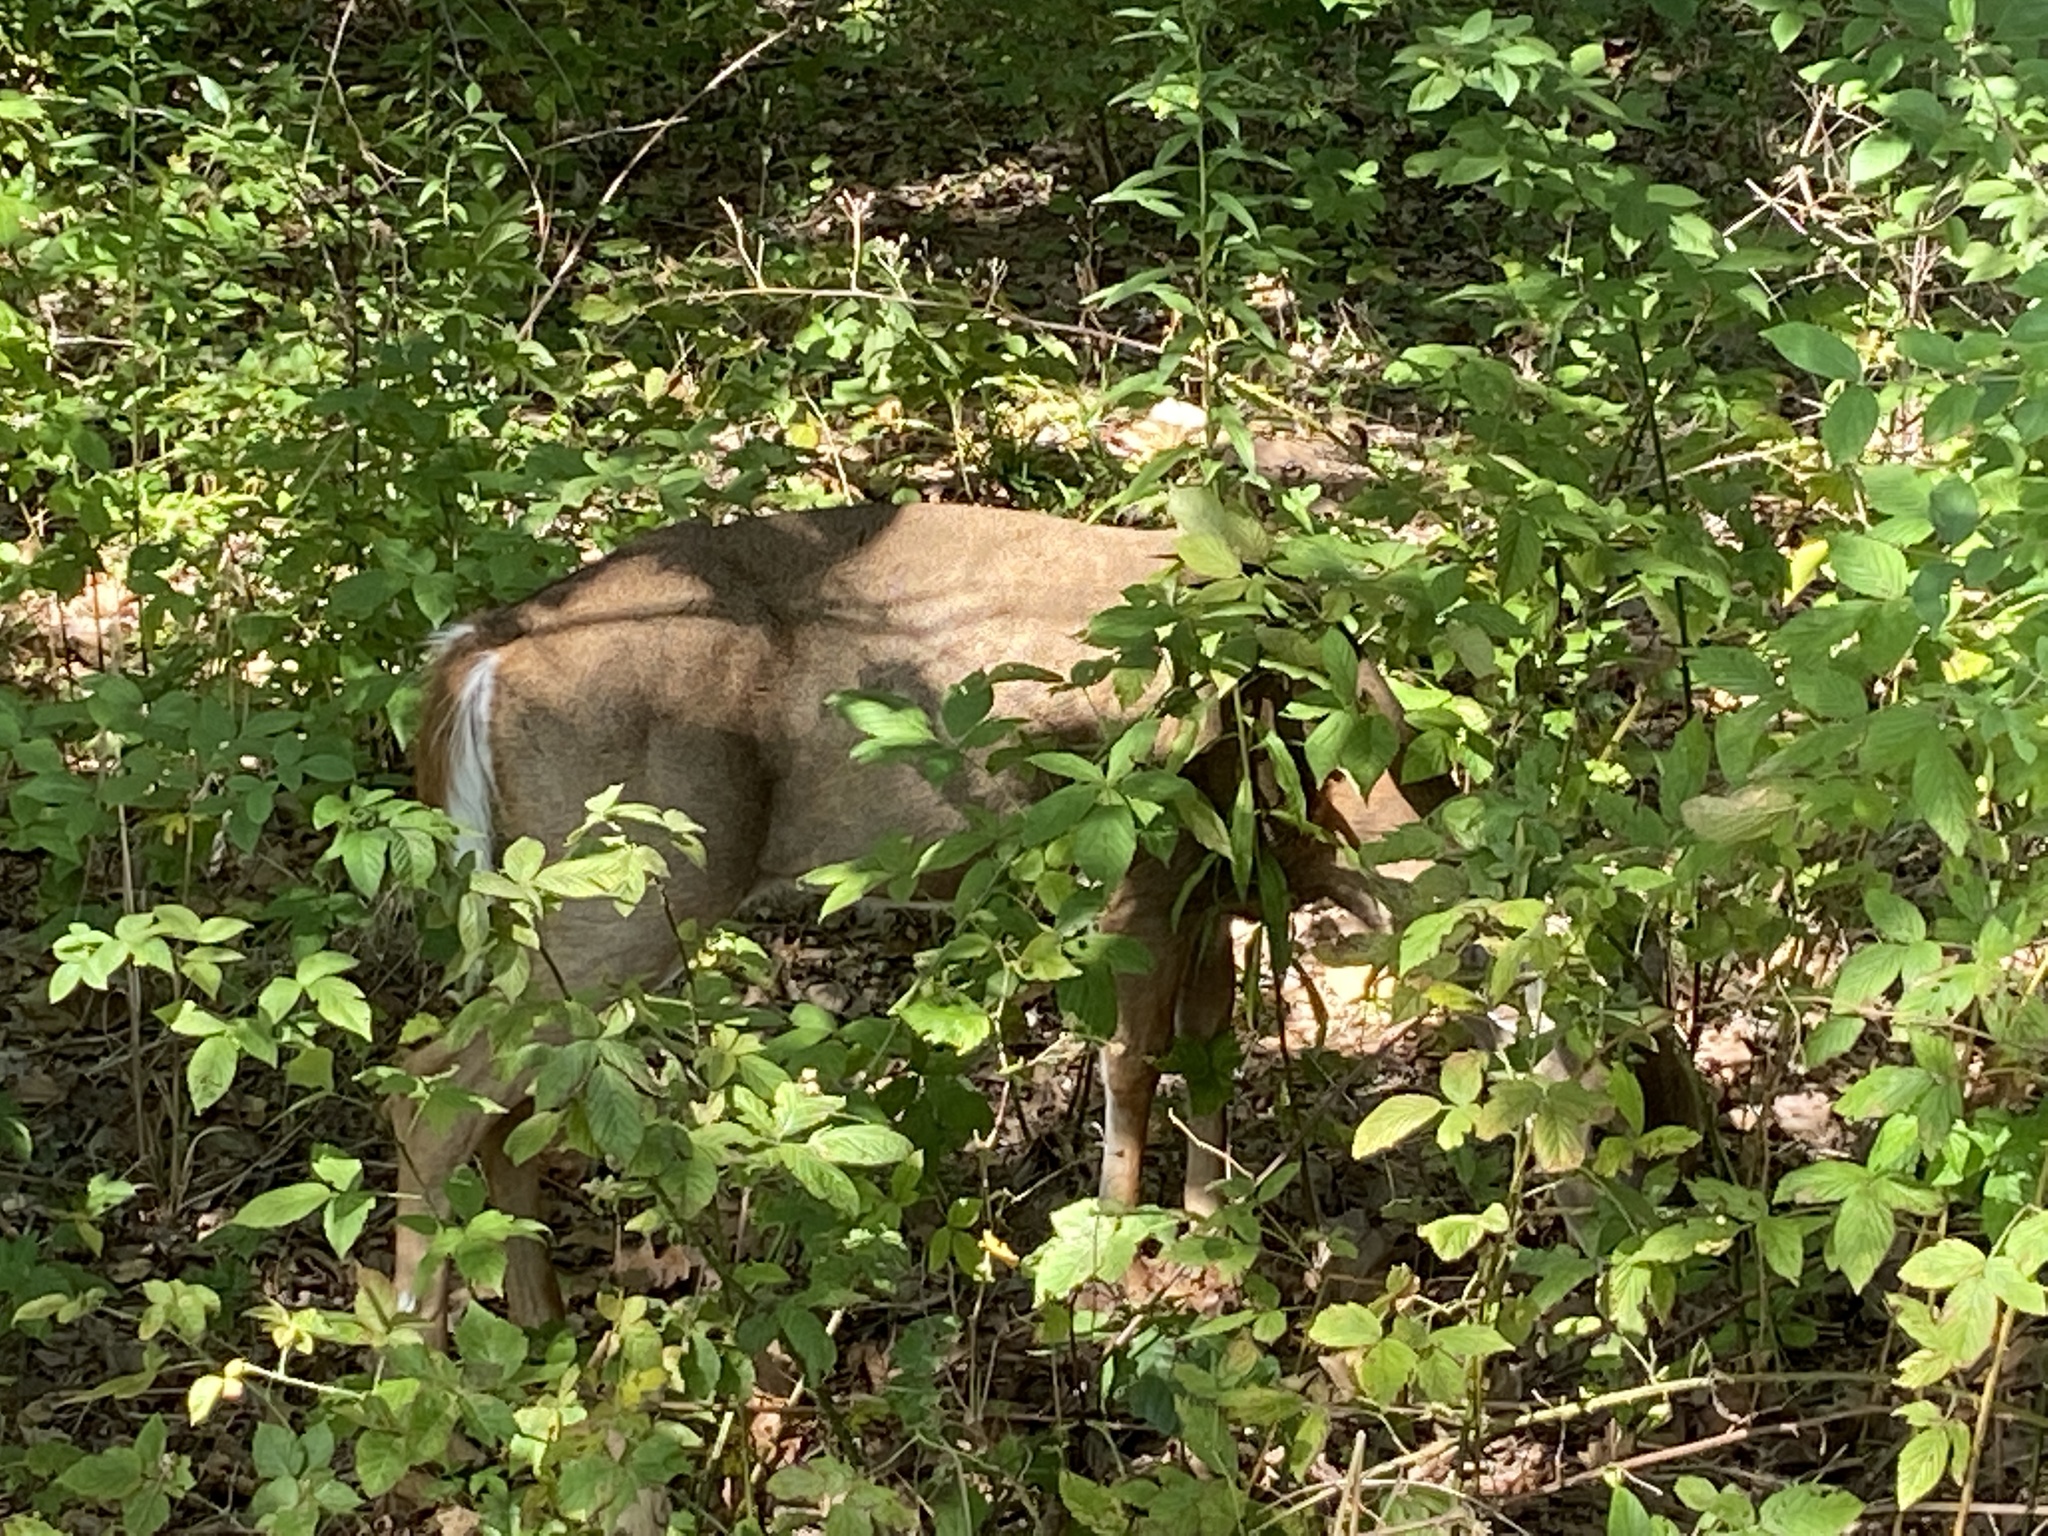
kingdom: Animalia
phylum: Chordata
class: Mammalia
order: Artiodactyla
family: Cervidae
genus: Odocoileus
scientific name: Odocoileus virginianus
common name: White-tailed deer
